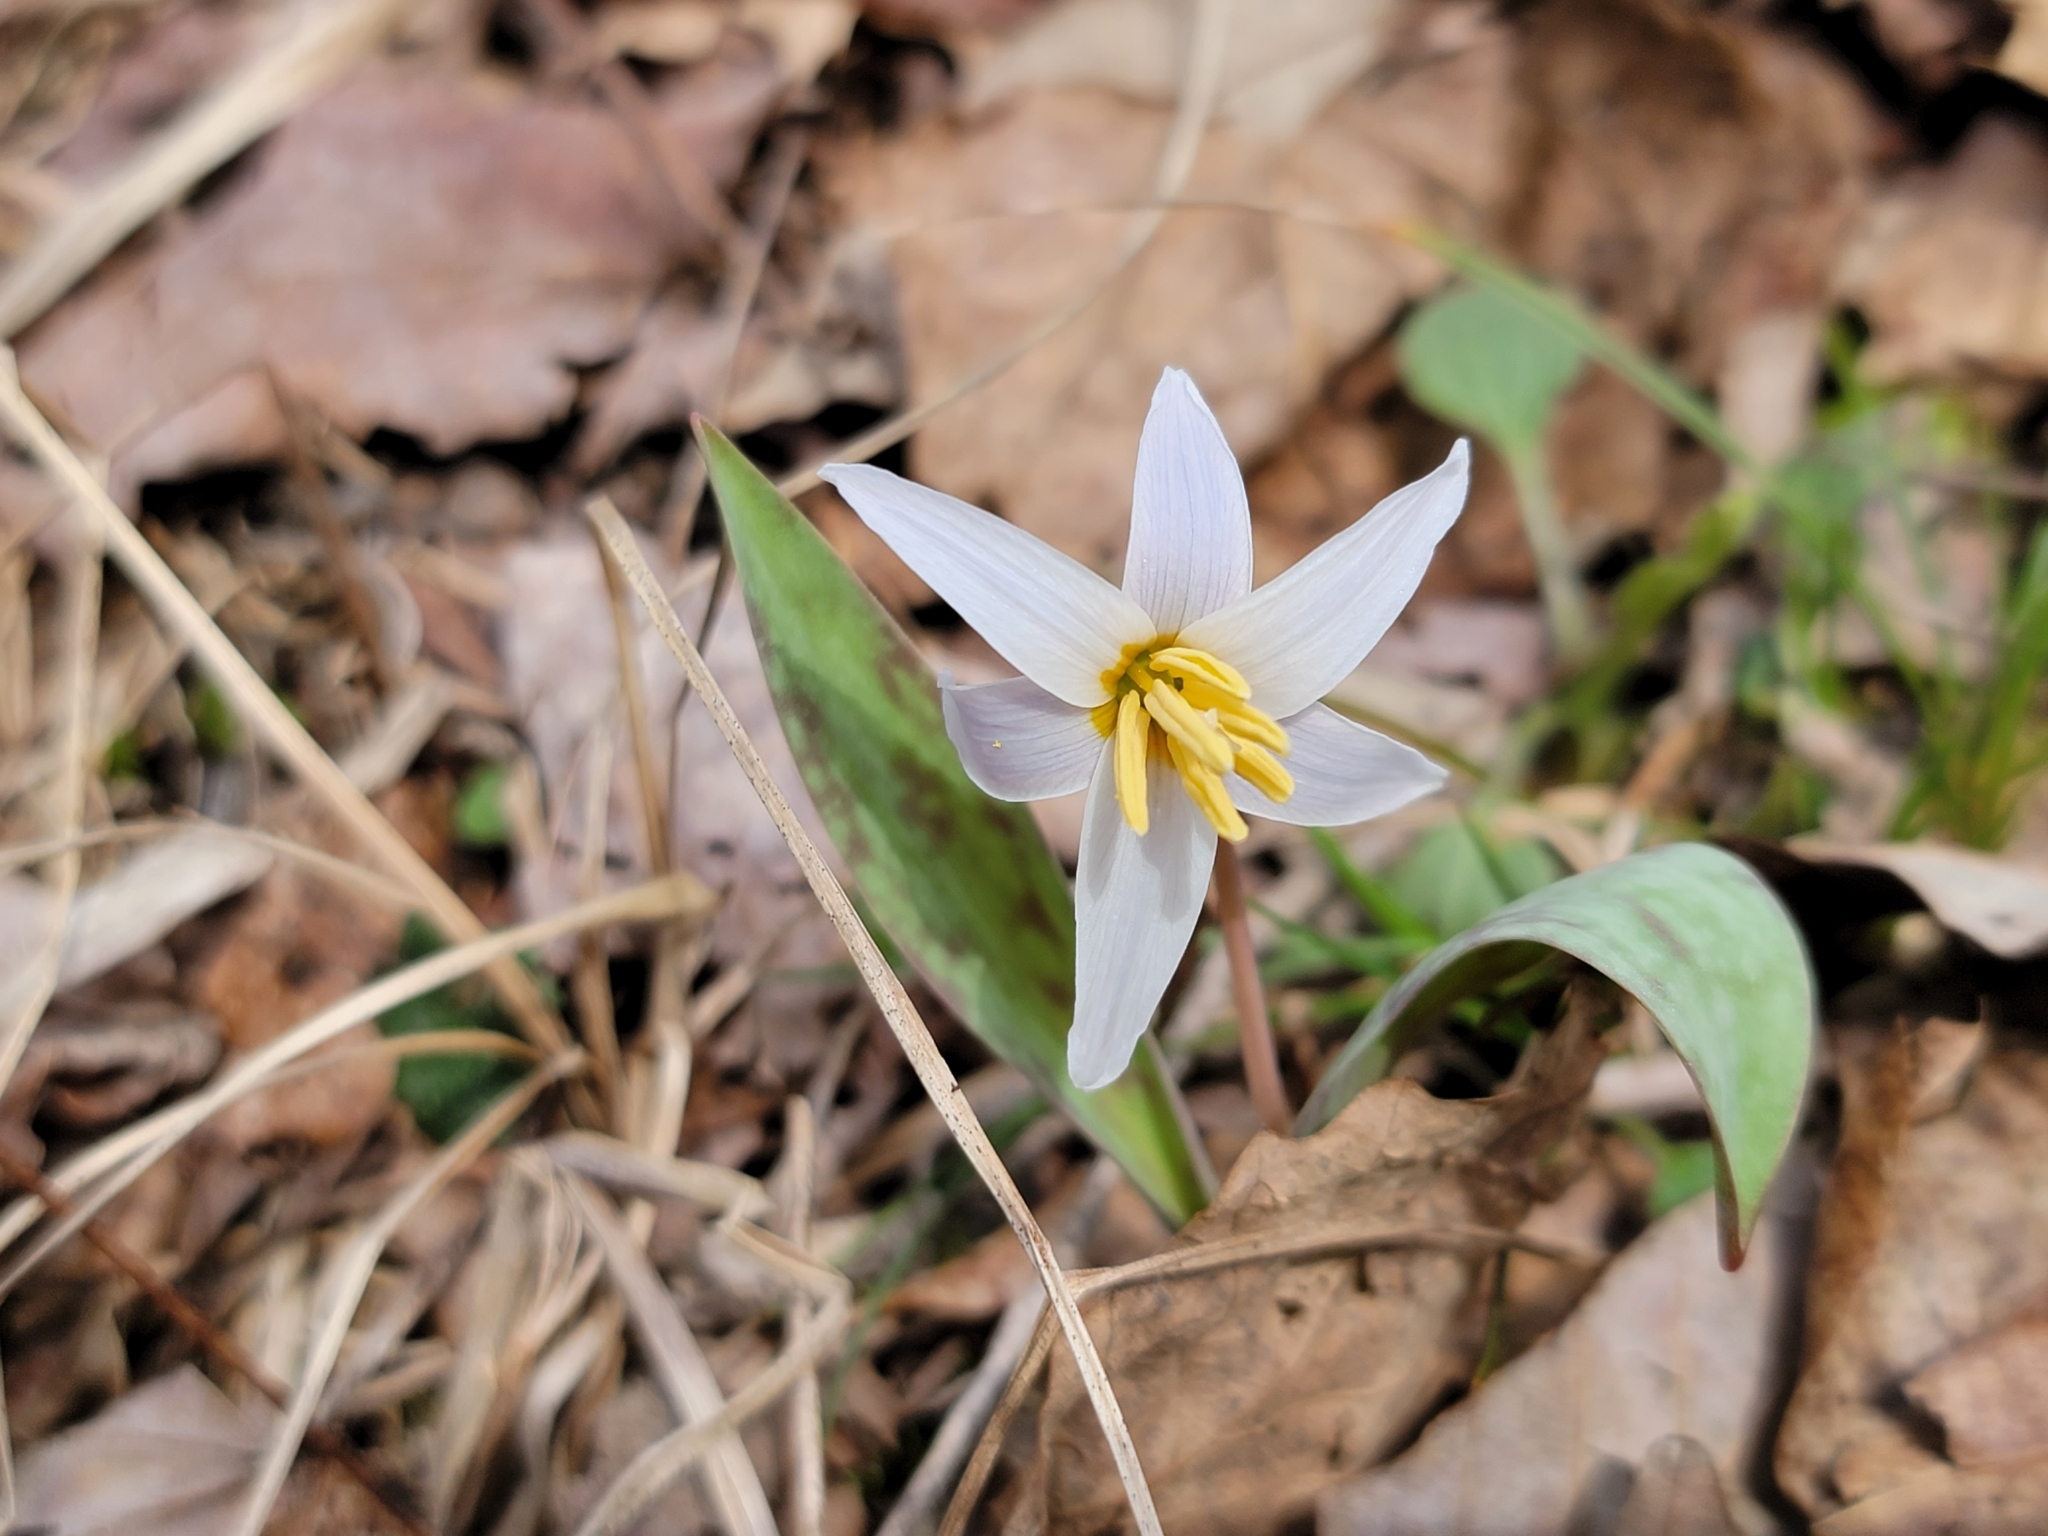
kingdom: Plantae
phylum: Tracheophyta
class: Liliopsida
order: Liliales
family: Liliaceae
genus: Erythronium
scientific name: Erythronium albidum
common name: White trout-lily
